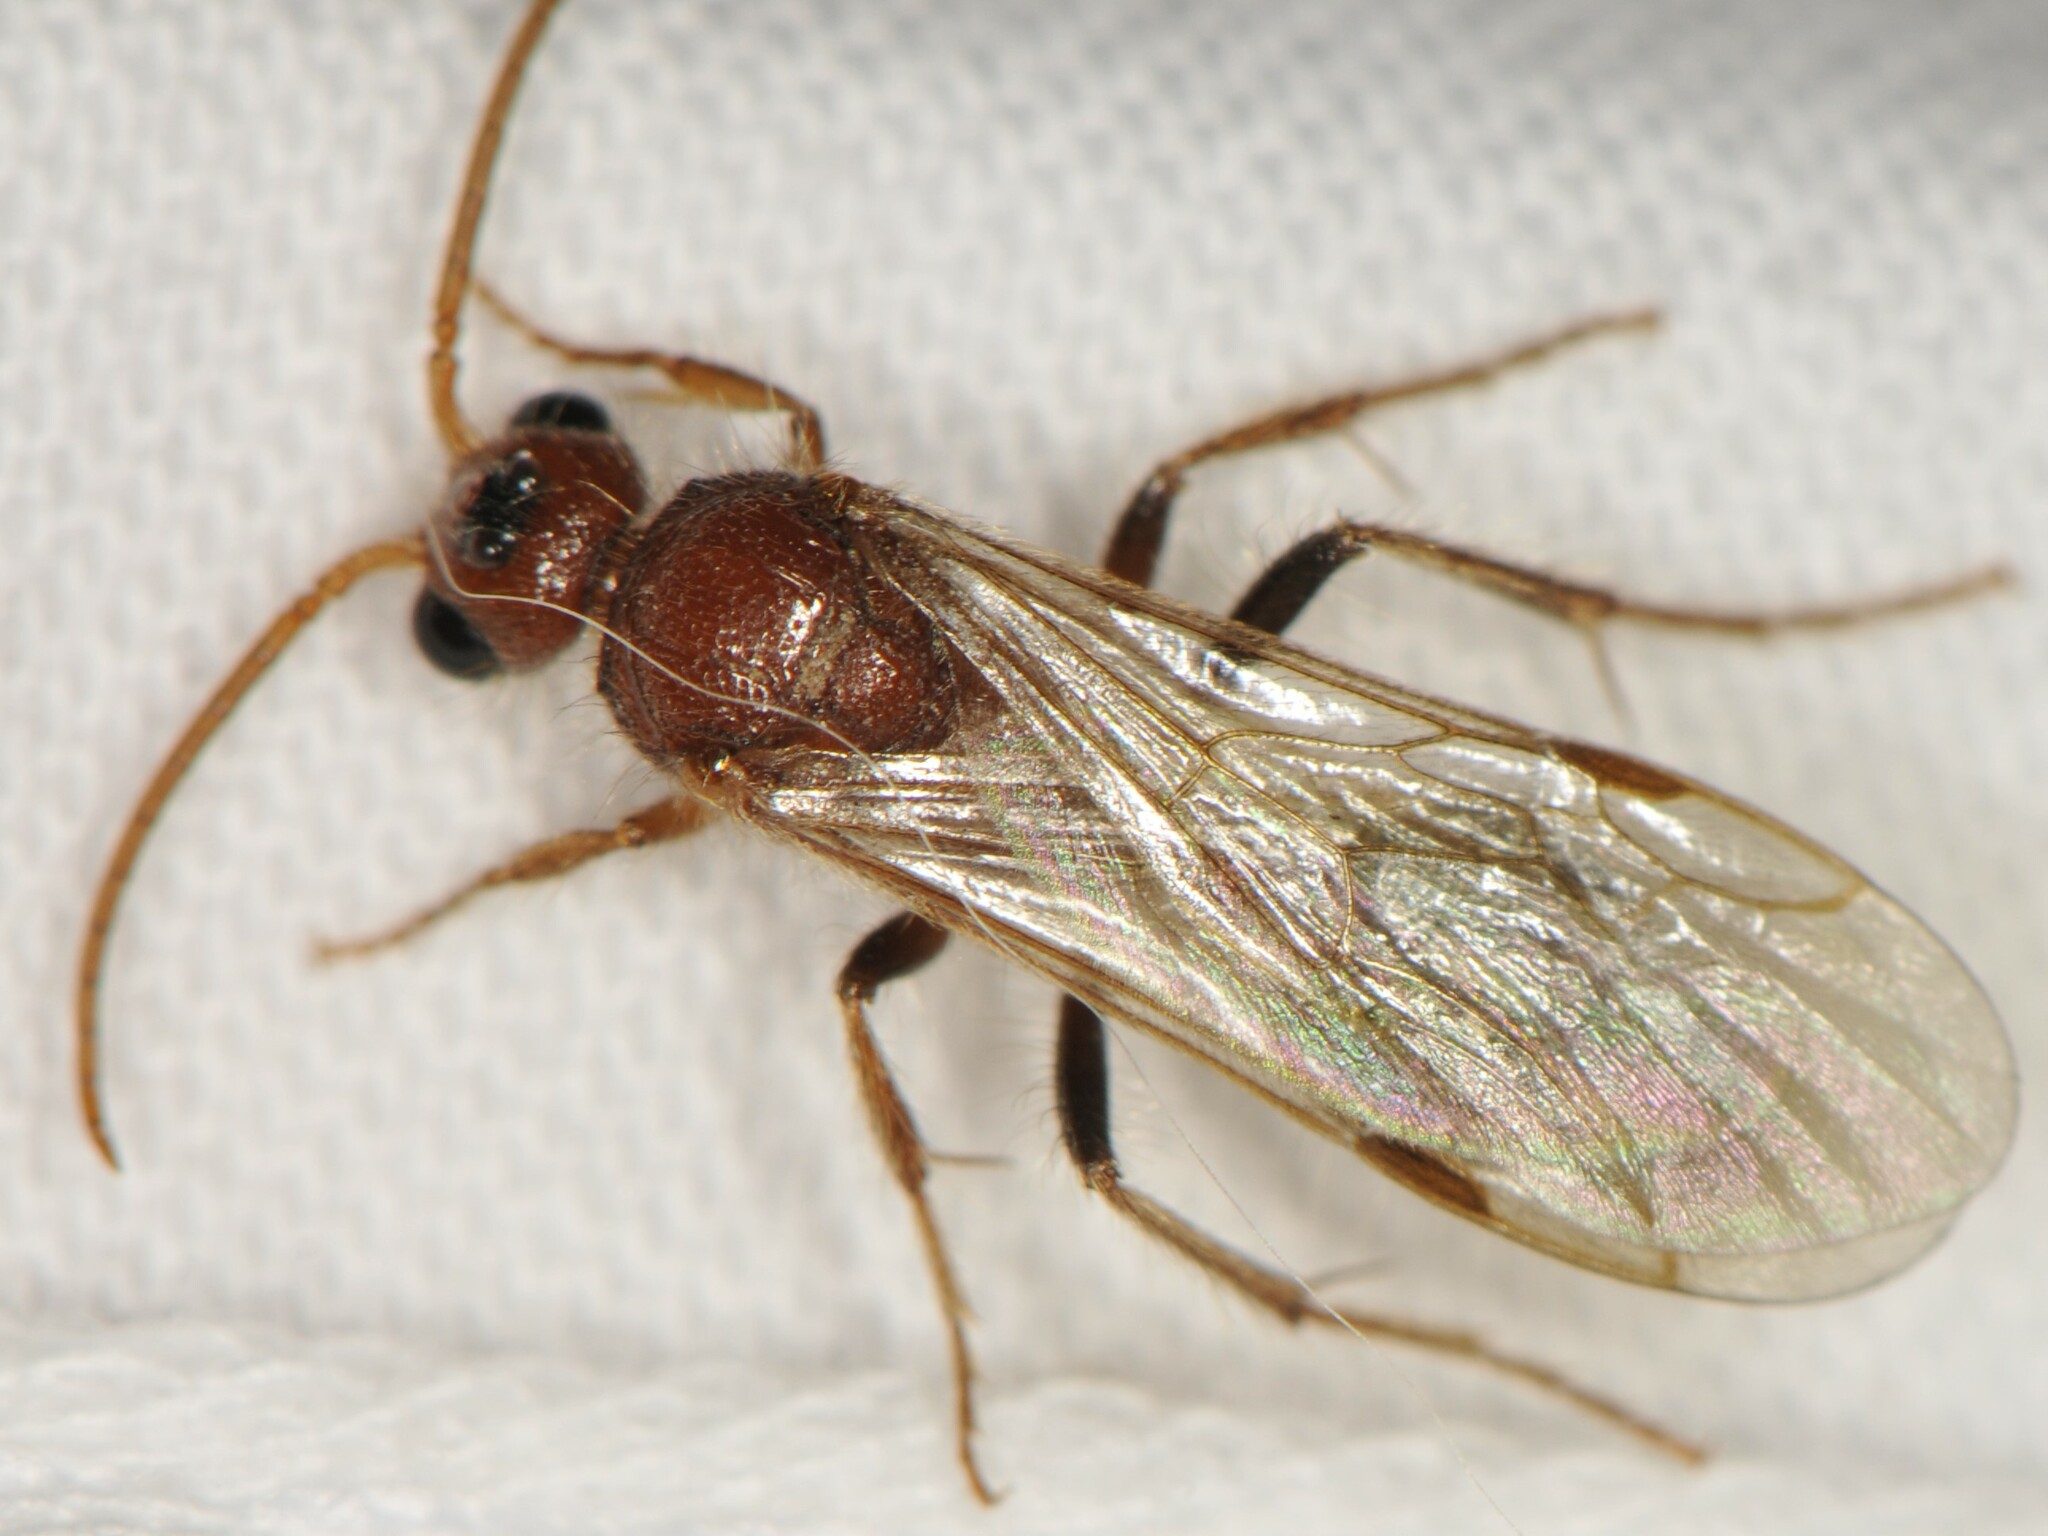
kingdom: Animalia
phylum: Arthropoda
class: Insecta
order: Hymenoptera
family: Mutillidae
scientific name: Mutillidae
